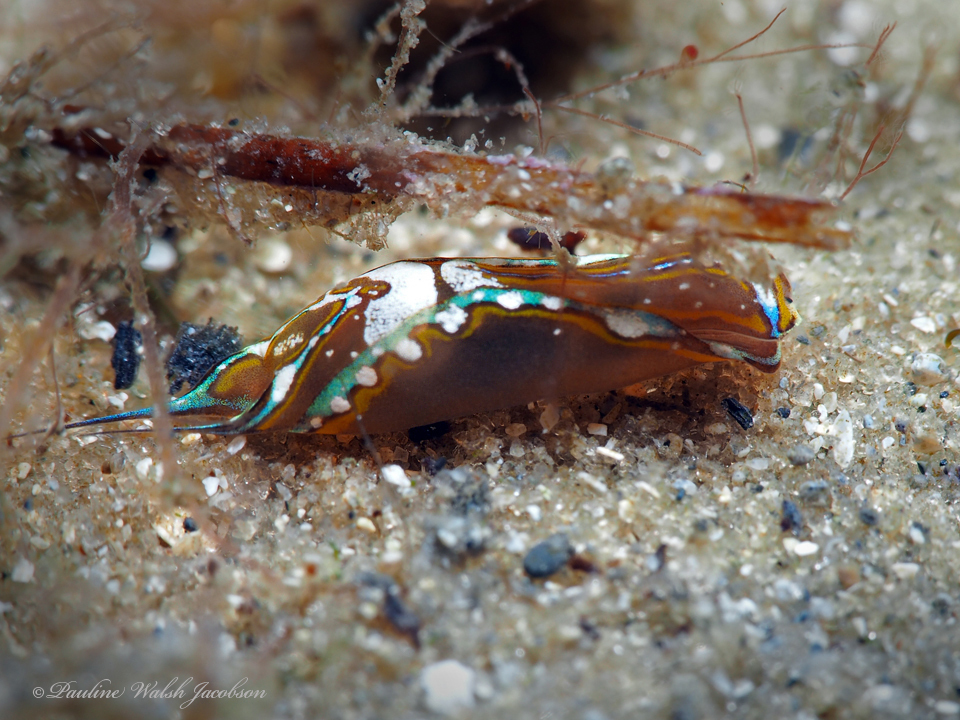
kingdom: Animalia
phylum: Mollusca
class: Gastropoda
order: Cephalaspidea
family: Aglajidae
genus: Chelidonura
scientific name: Chelidonura hirundinina
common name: Leech headshield slug
